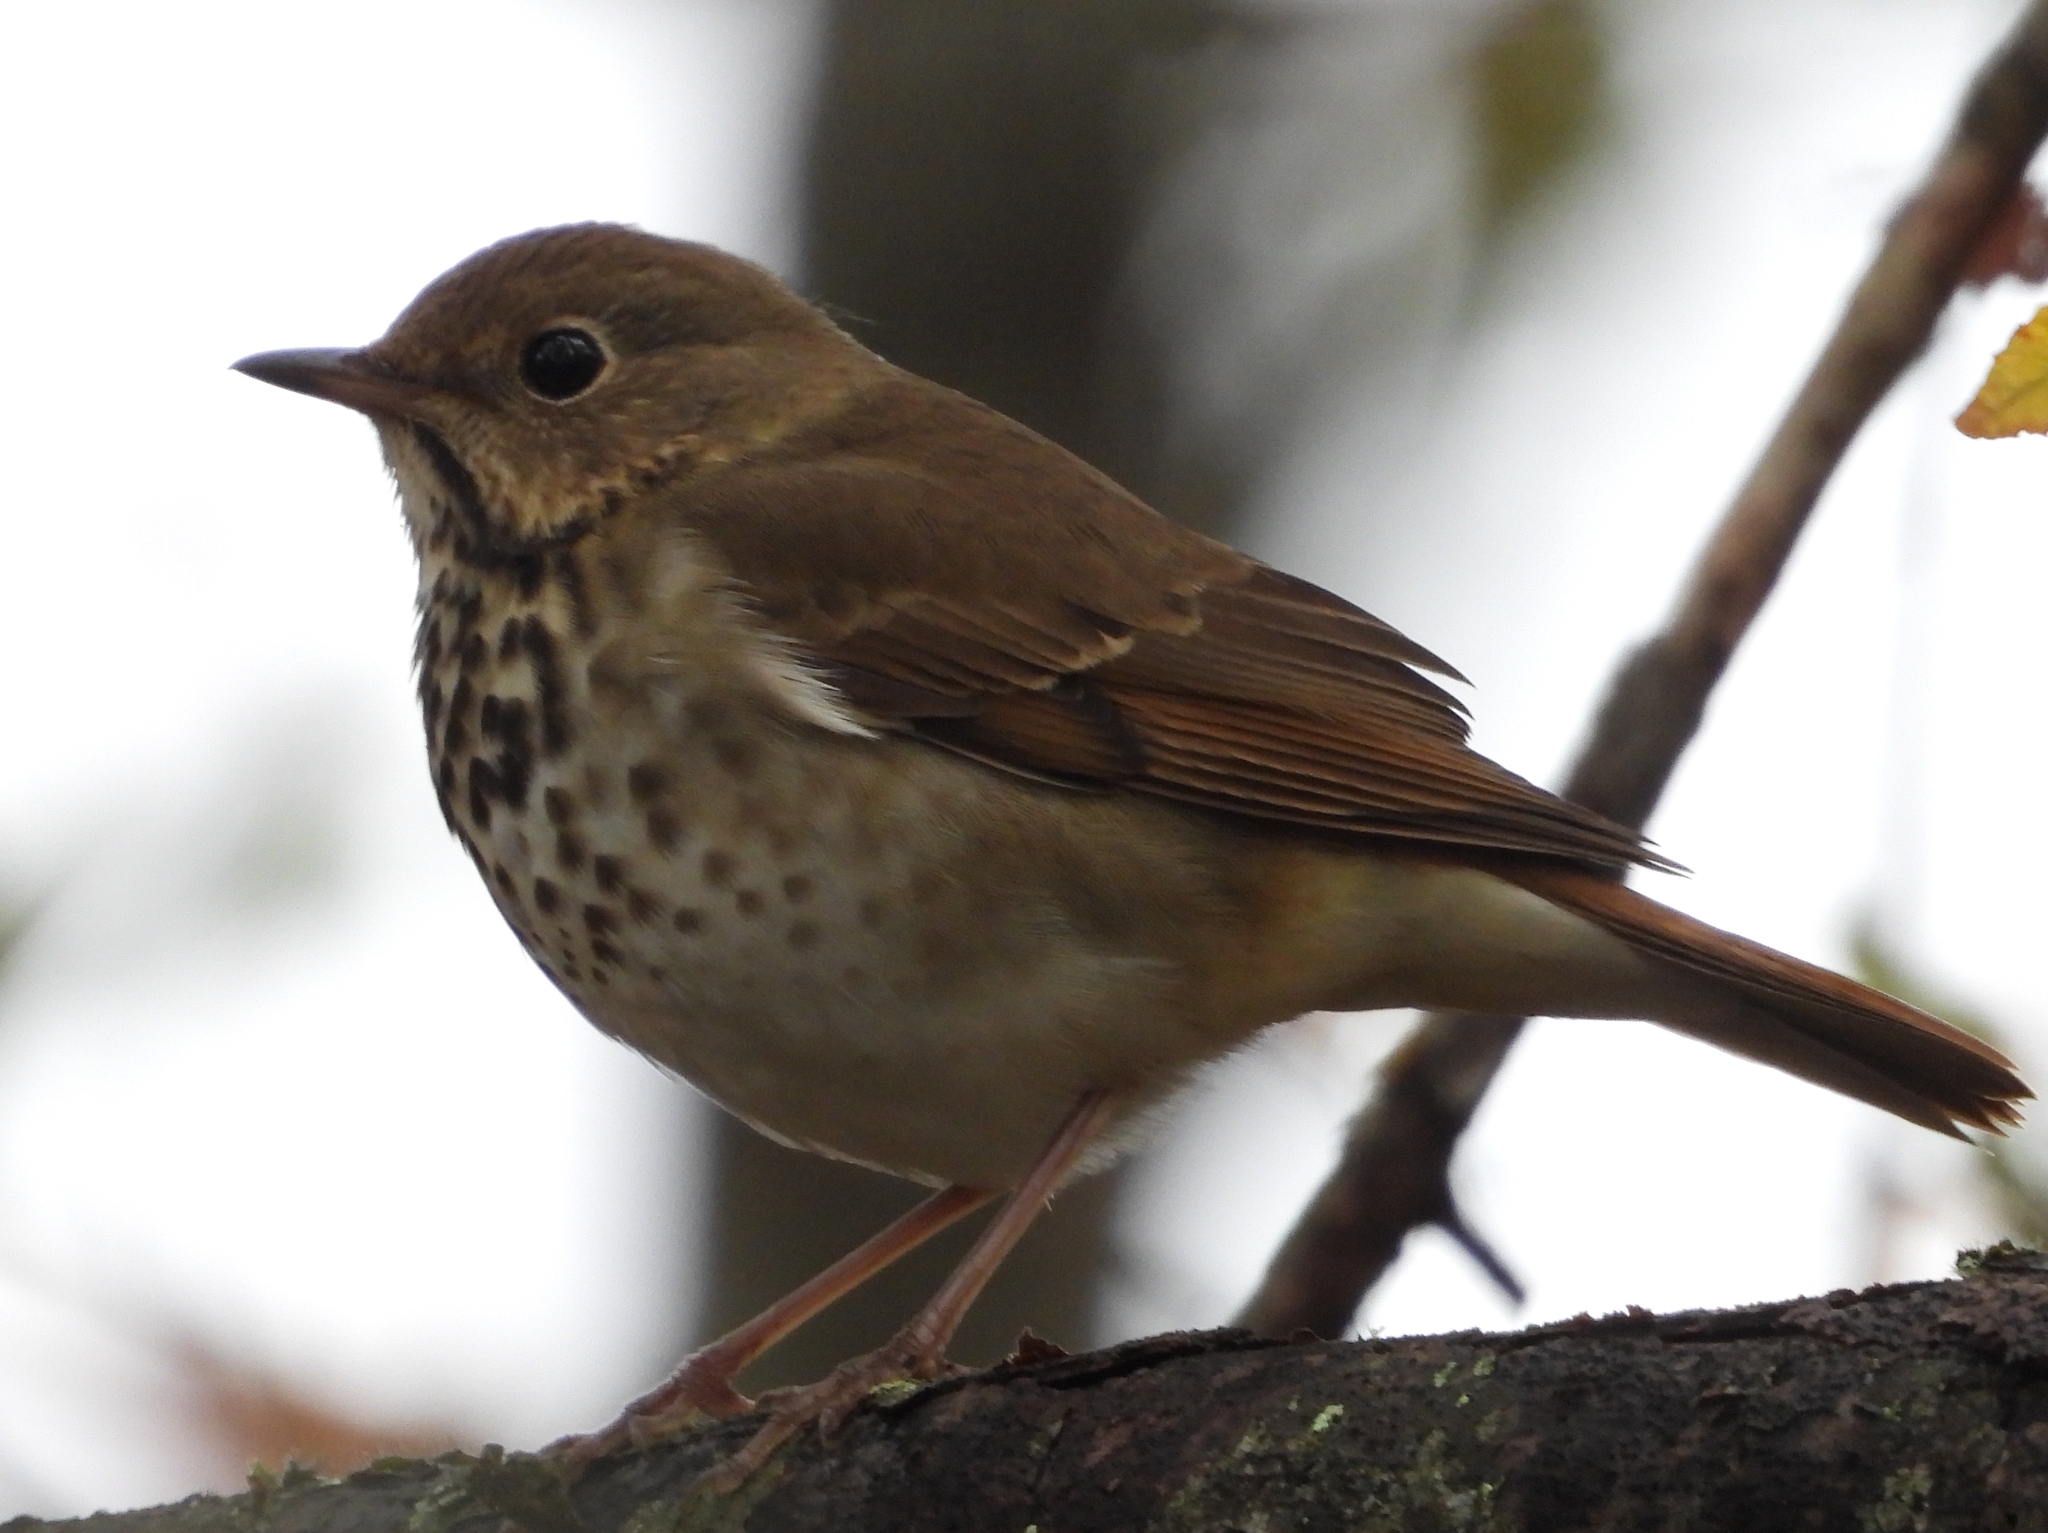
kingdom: Animalia
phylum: Chordata
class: Aves
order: Passeriformes
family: Turdidae
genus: Catharus
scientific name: Catharus guttatus
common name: Hermit thrush
